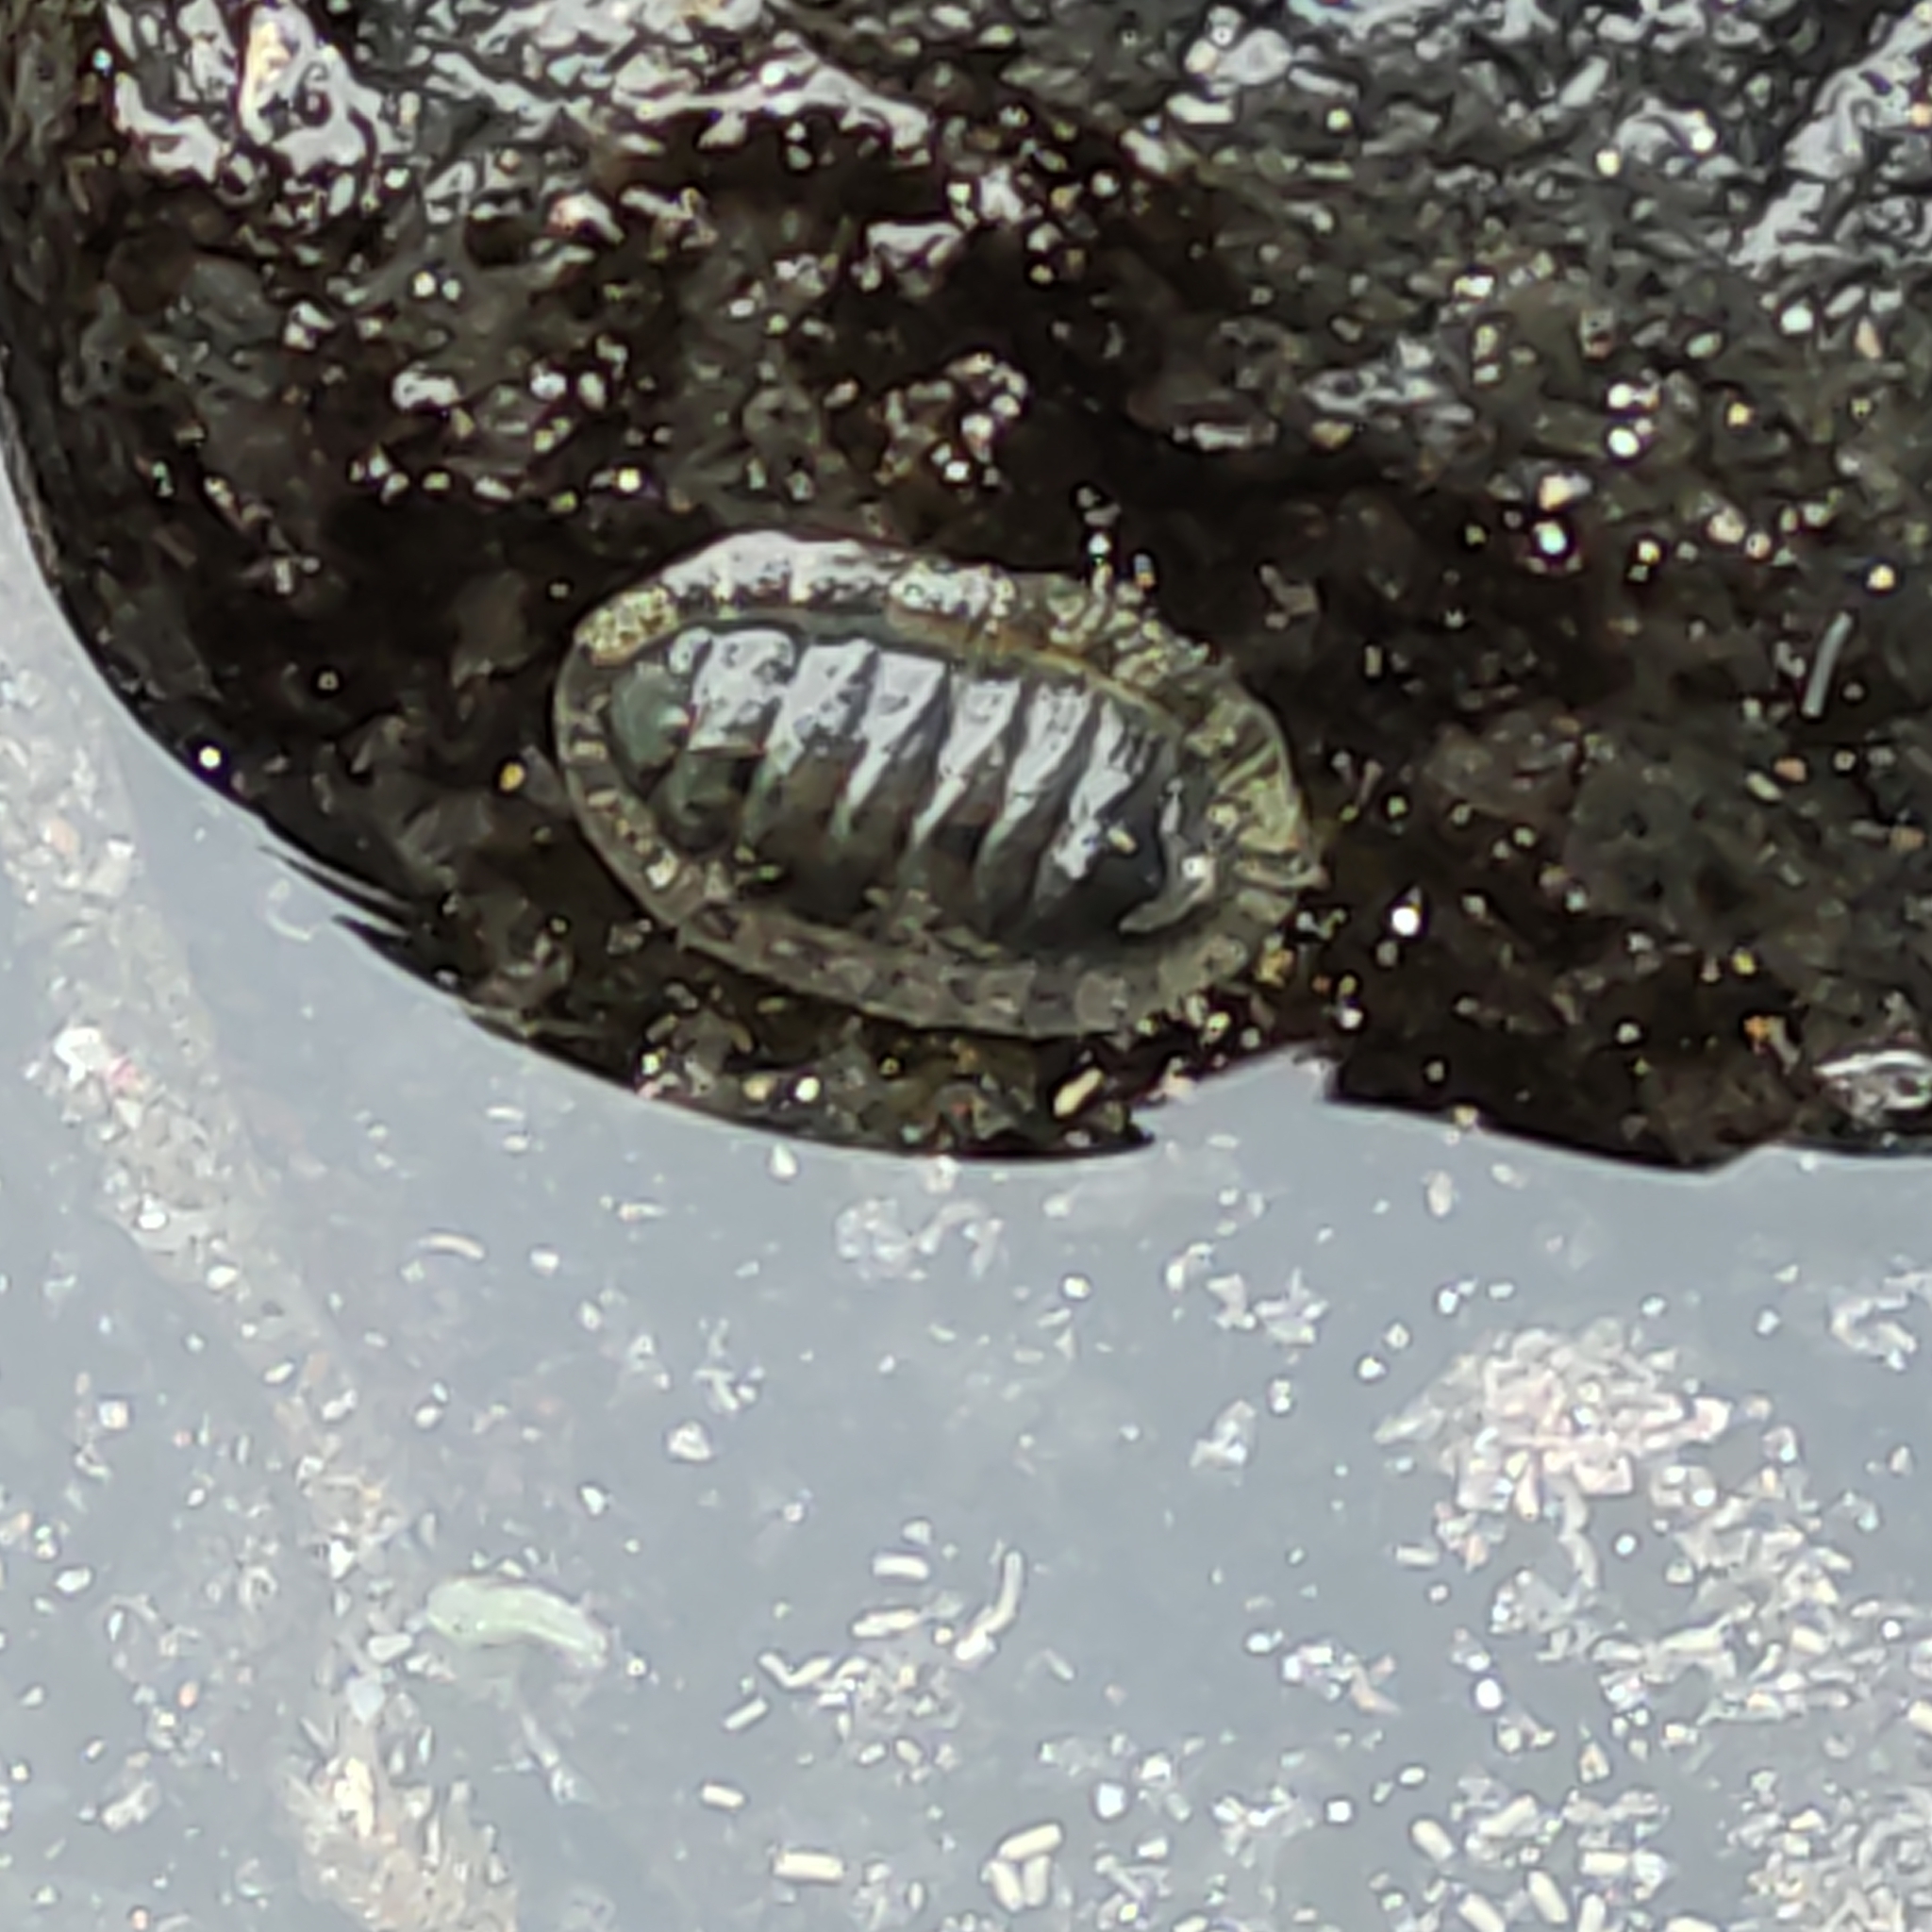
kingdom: Animalia
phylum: Mollusca
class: Polyplacophora
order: Chitonida
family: Chitonidae
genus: Sypharochiton
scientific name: Sypharochiton pelliserpentis
